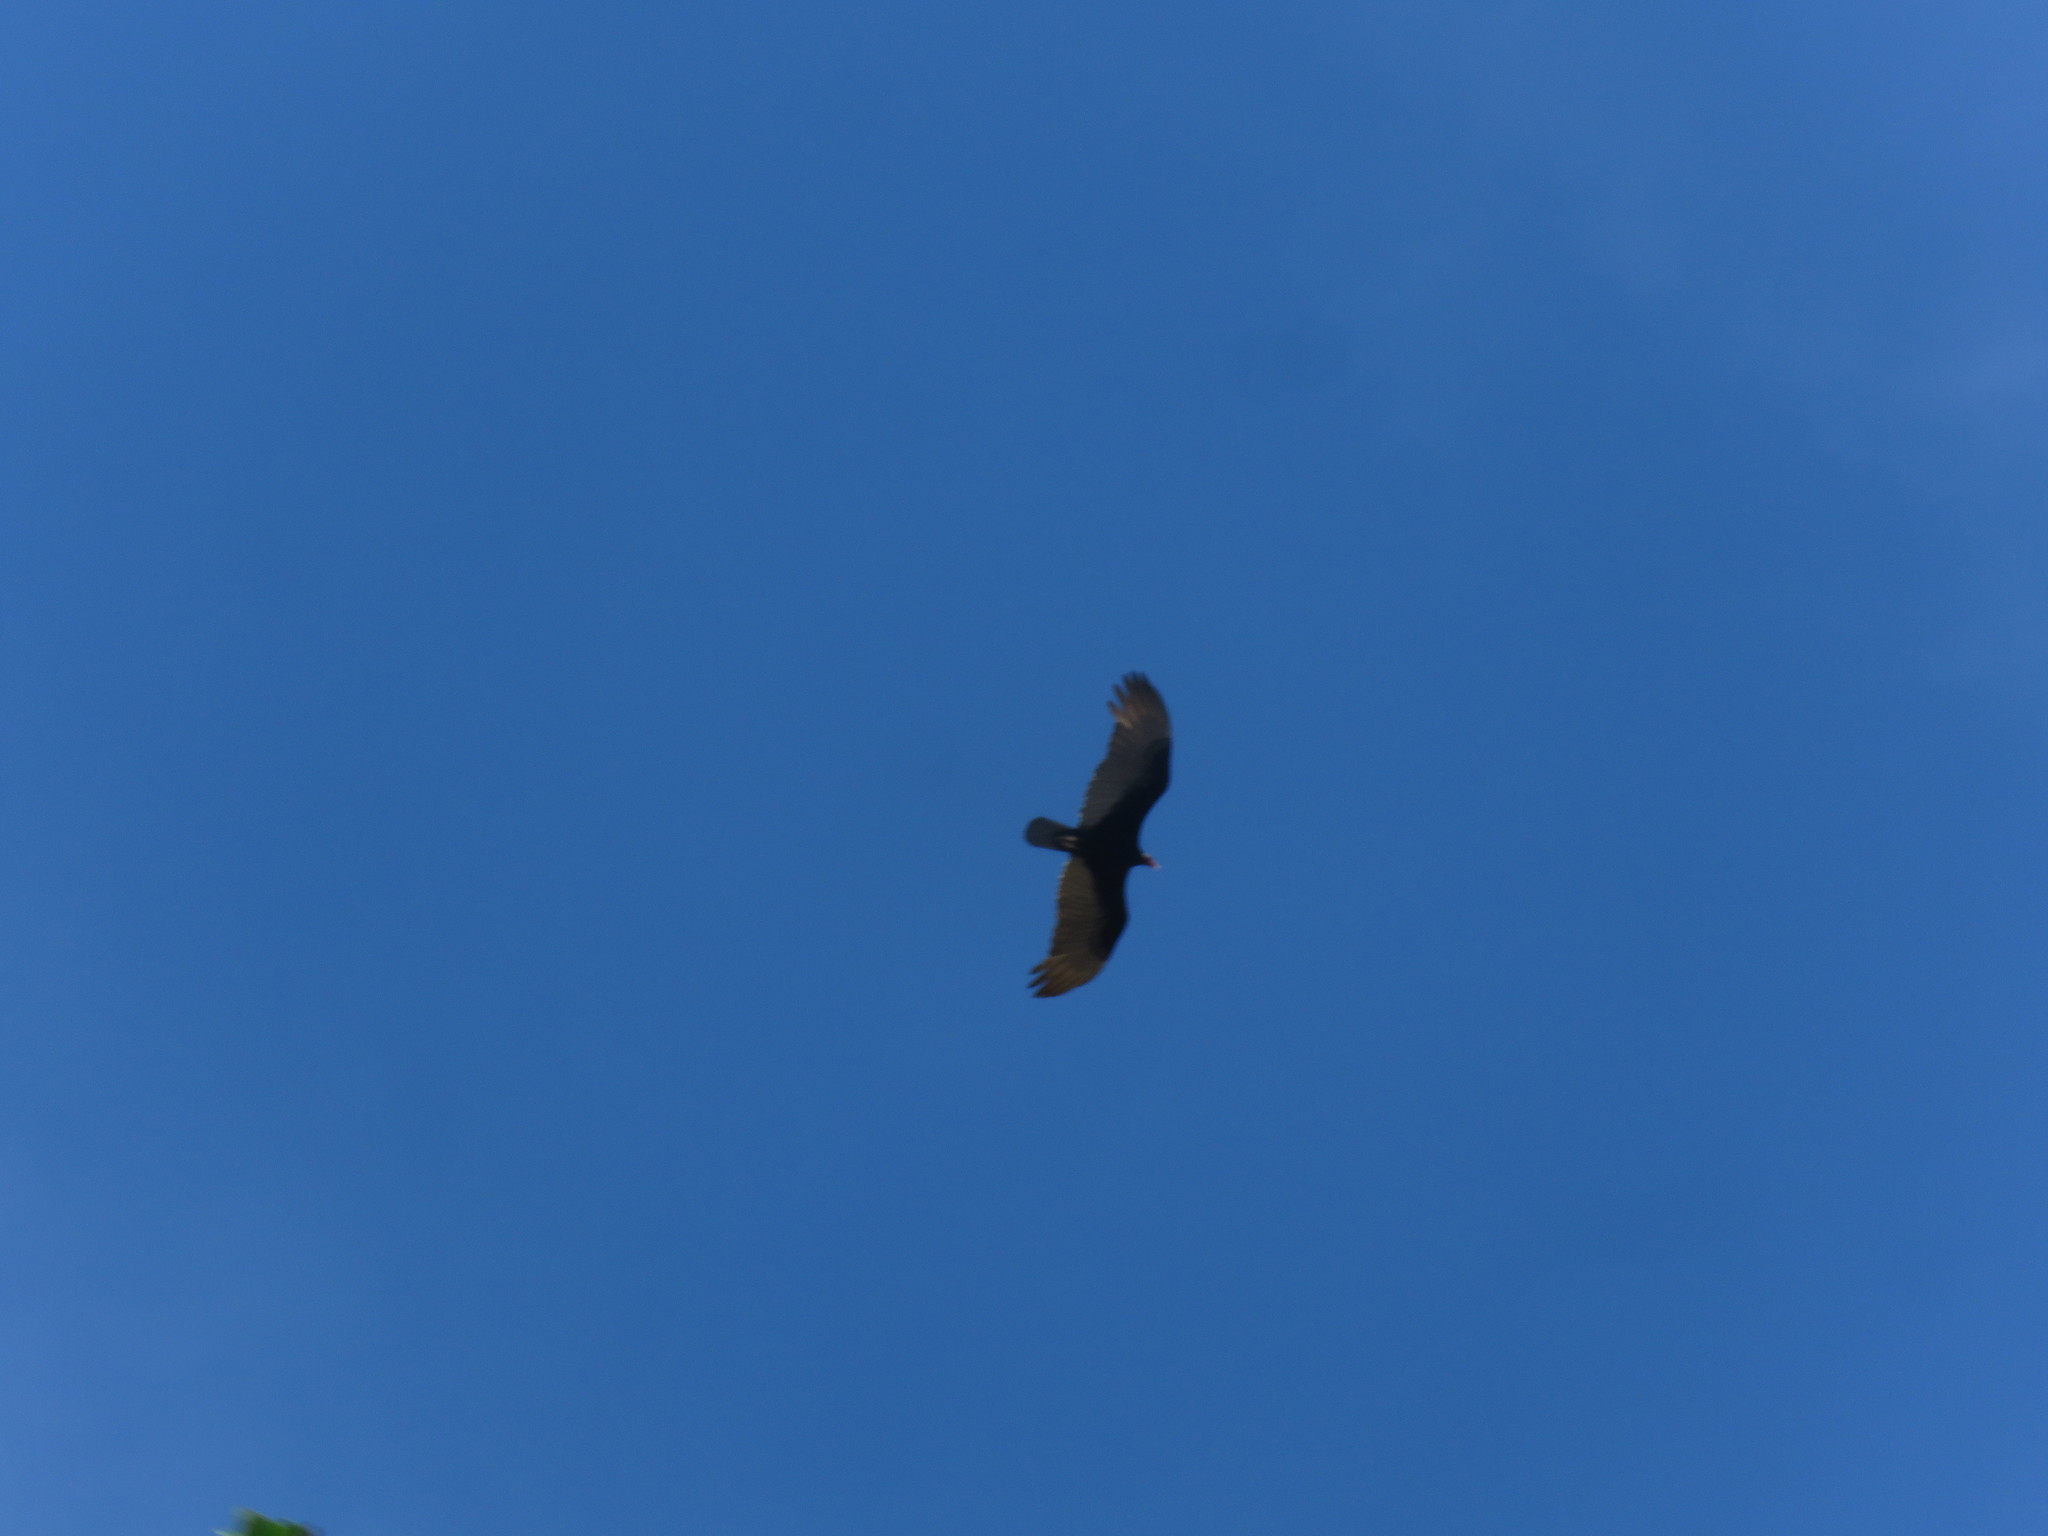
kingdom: Animalia
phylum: Chordata
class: Aves
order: Accipitriformes
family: Cathartidae
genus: Cathartes
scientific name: Cathartes aura
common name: Turkey vulture
